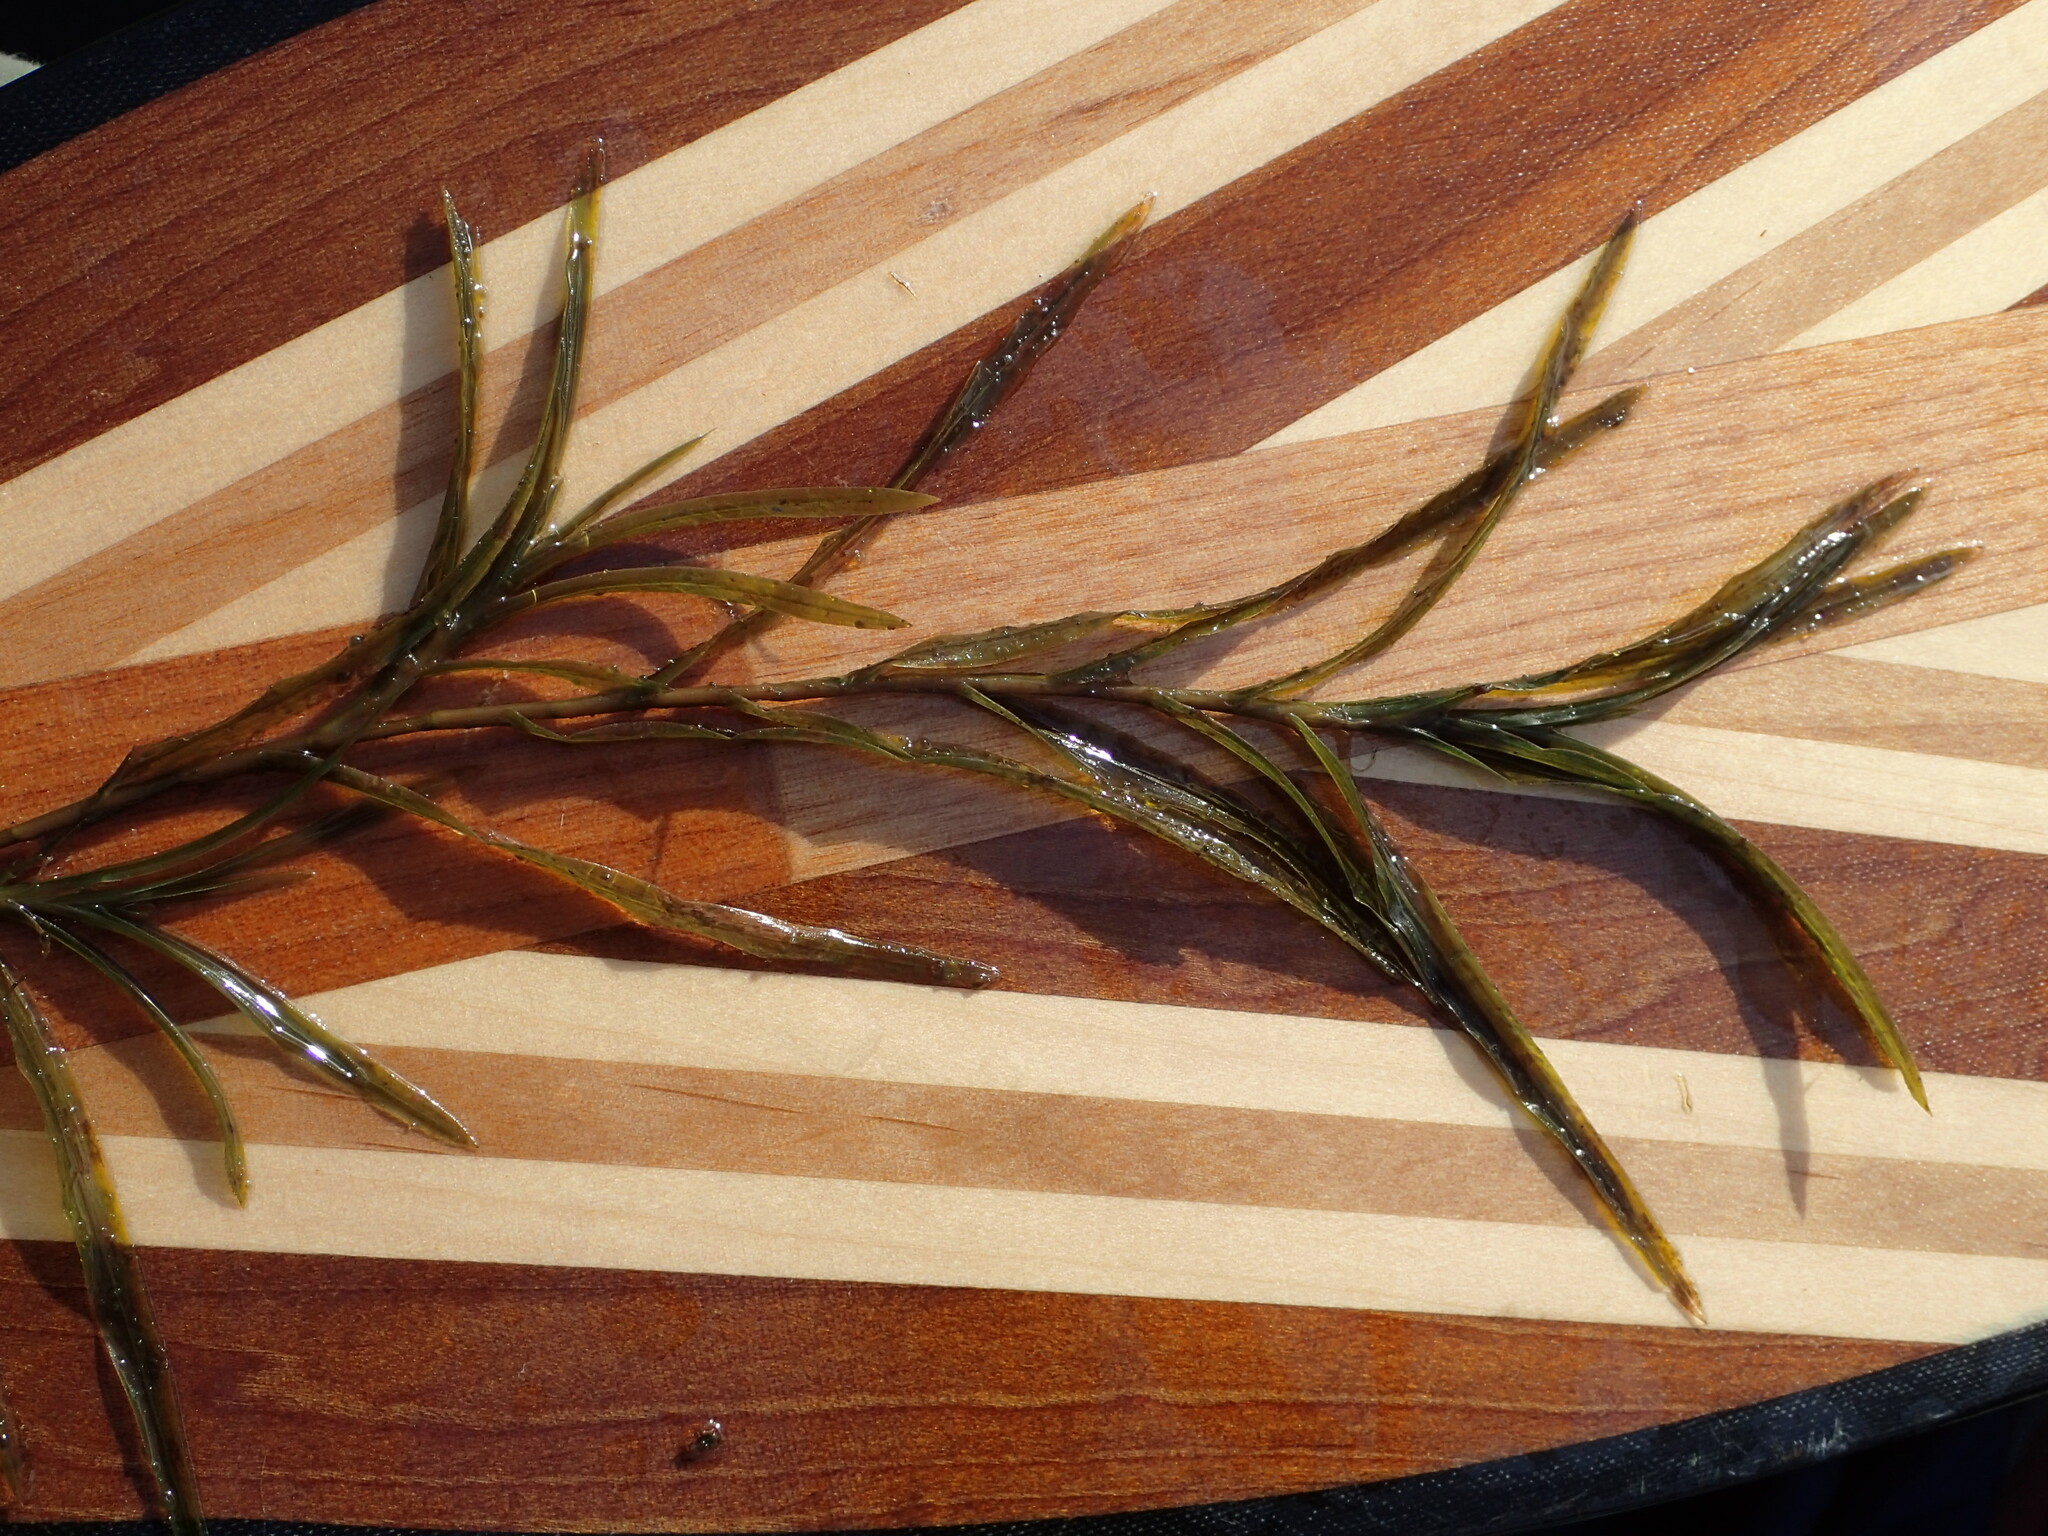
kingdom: Plantae
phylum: Tracheophyta
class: Liliopsida
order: Alismatales
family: Potamogetonaceae
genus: Potamogeton
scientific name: Potamogeton robbinsii
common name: Fern pondweed
